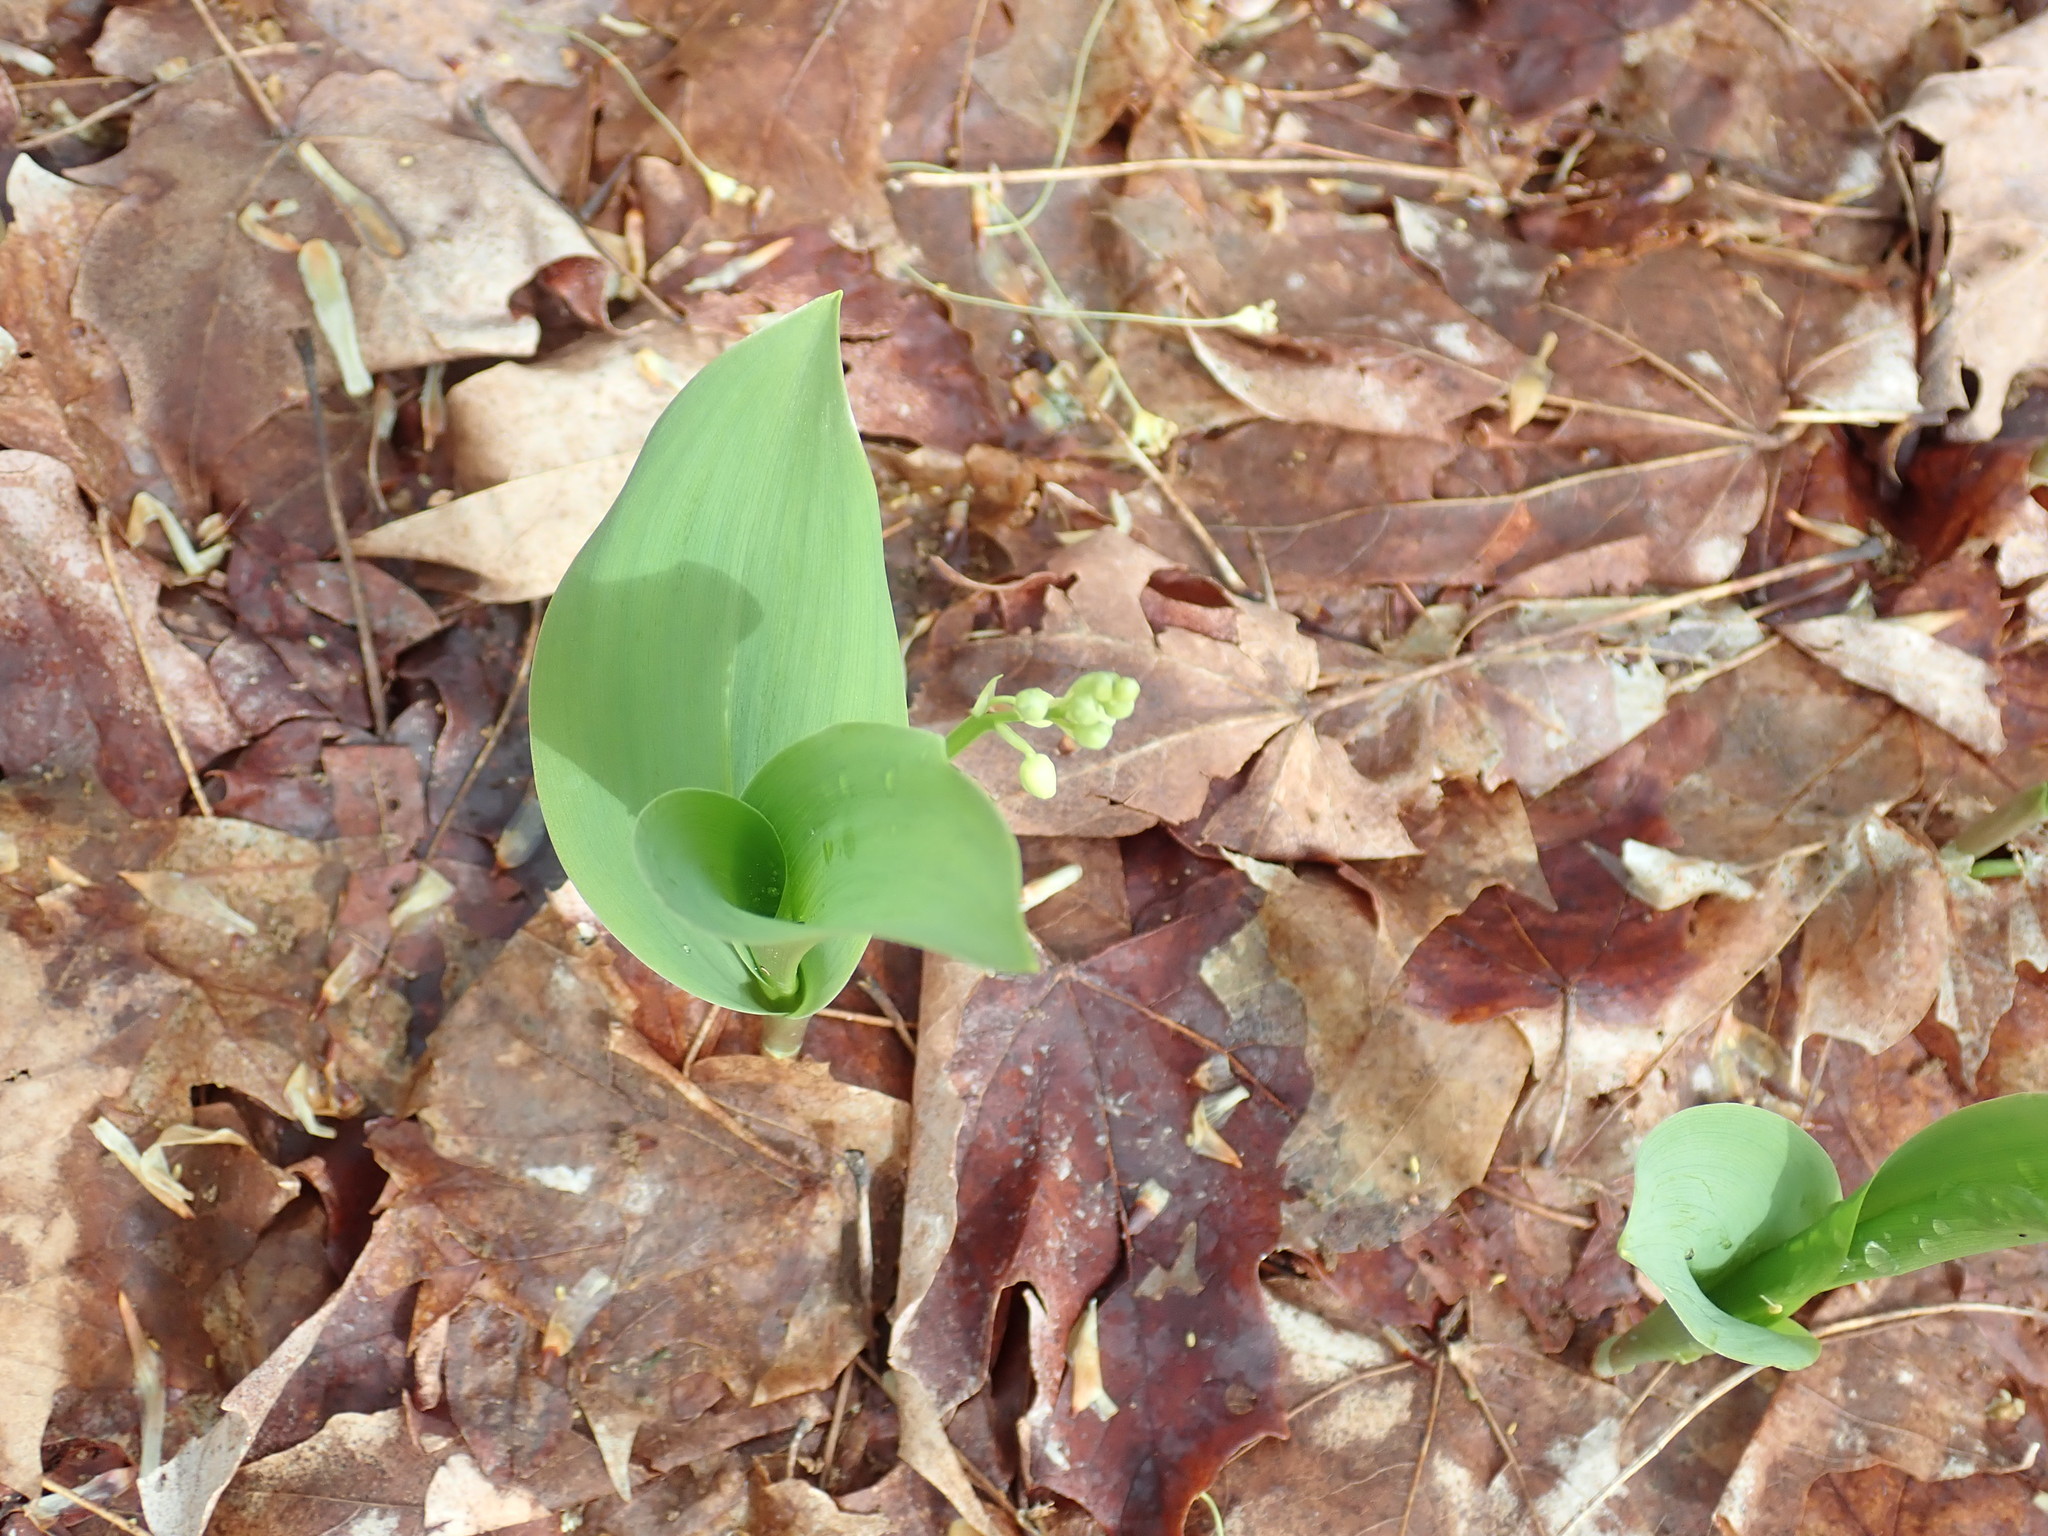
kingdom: Plantae
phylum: Tracheophyta
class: Liliopsida
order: Asparagales
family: Asparagaceae
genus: Convallaria
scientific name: Convallaria majalis
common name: Lily-of-the-valley
